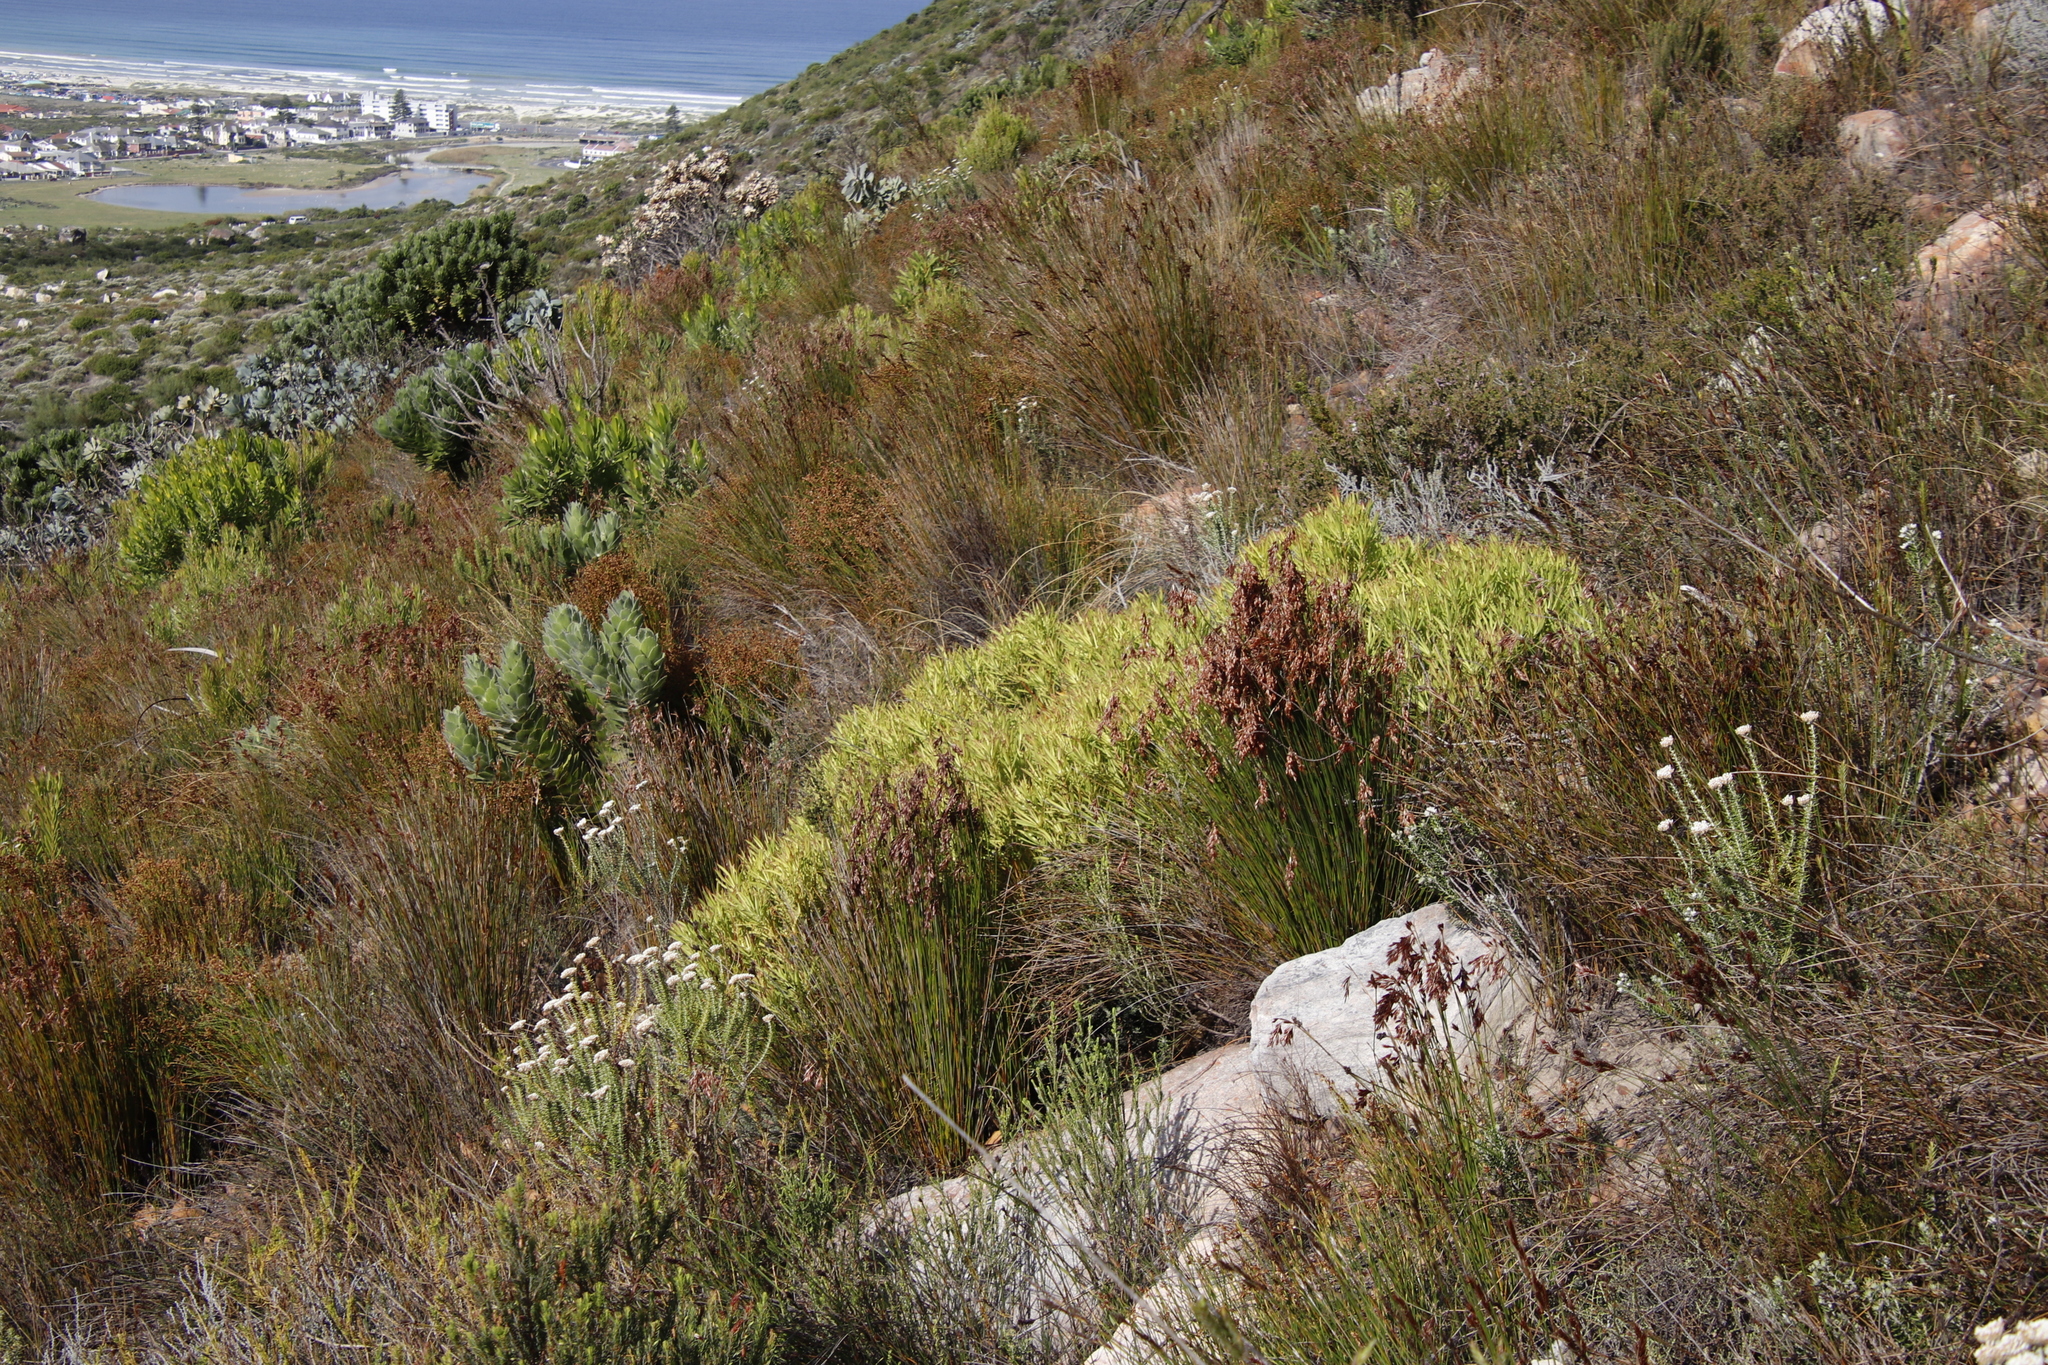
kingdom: Plantae
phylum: Tracheophyta
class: Magnoliopsida
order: Proteales
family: Proteaceae
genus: Leucadendron
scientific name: Leucadendron salignum
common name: Common sunshine conebush
